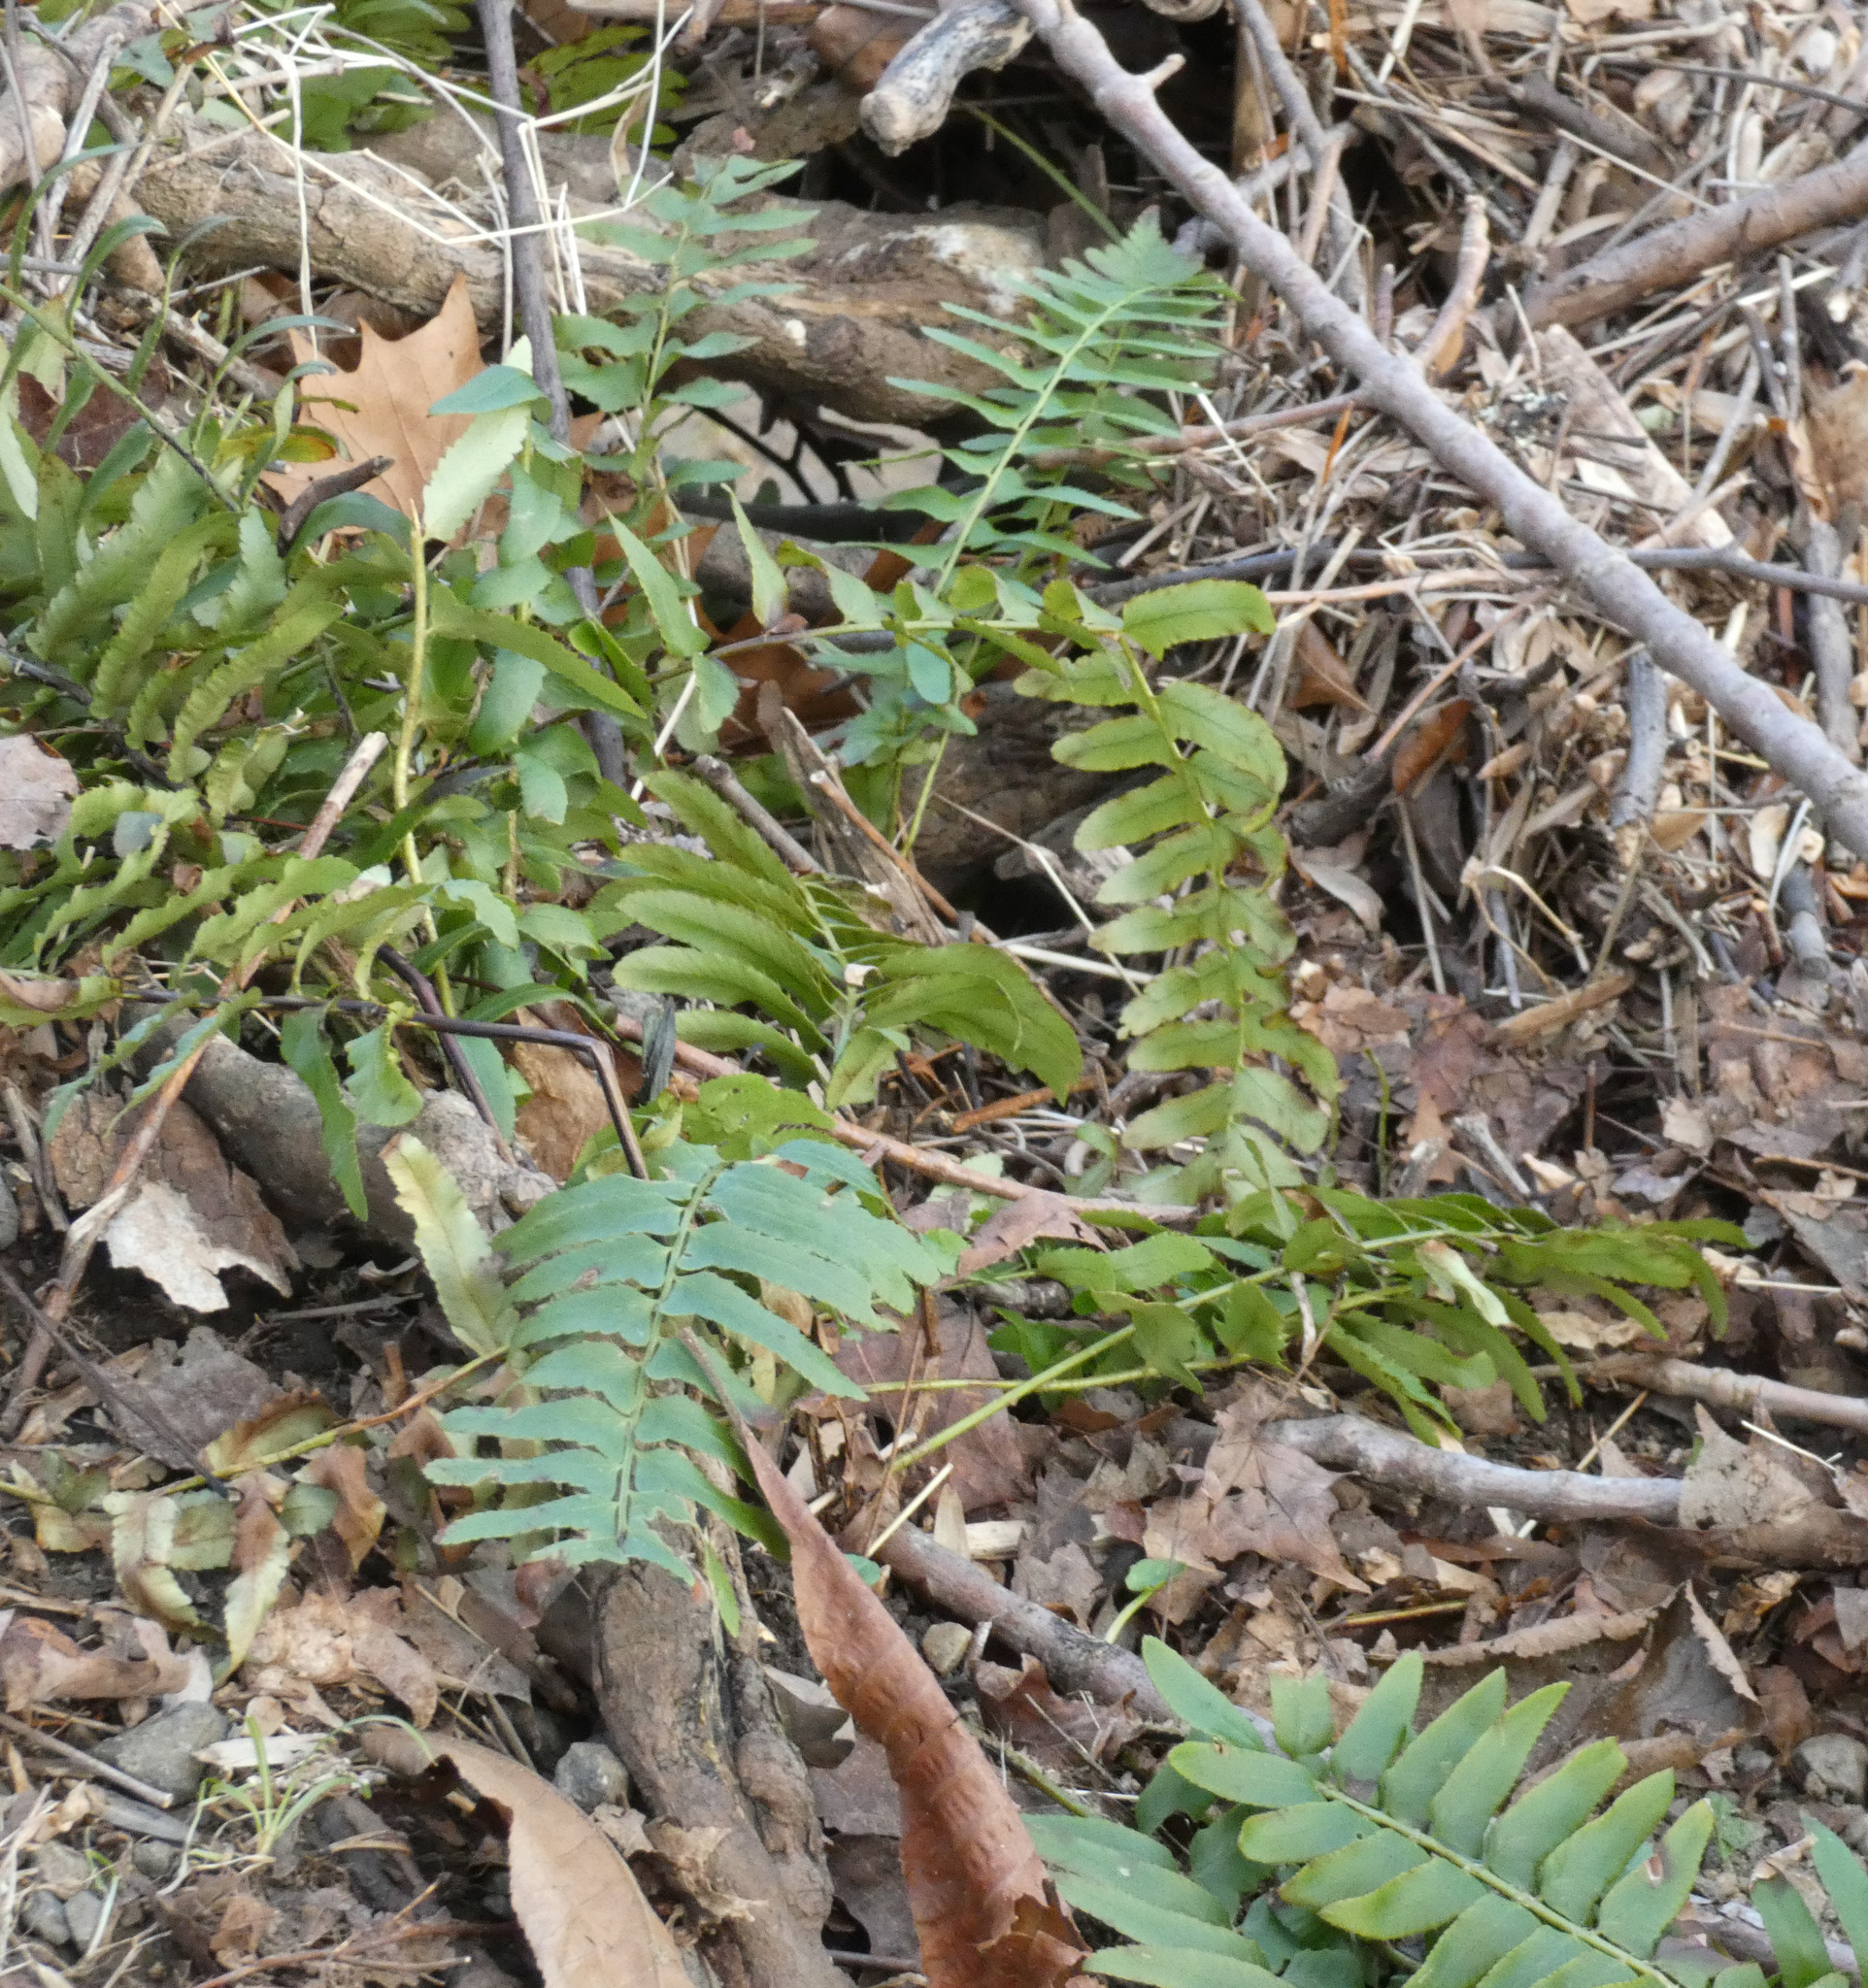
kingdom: Plantae
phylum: Tracheophyta
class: Polypodiopsida
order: Polypodiales
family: Dryopteridaceae
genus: Polystichum
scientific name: Polystichum acrostichoides
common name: Christmas fern
